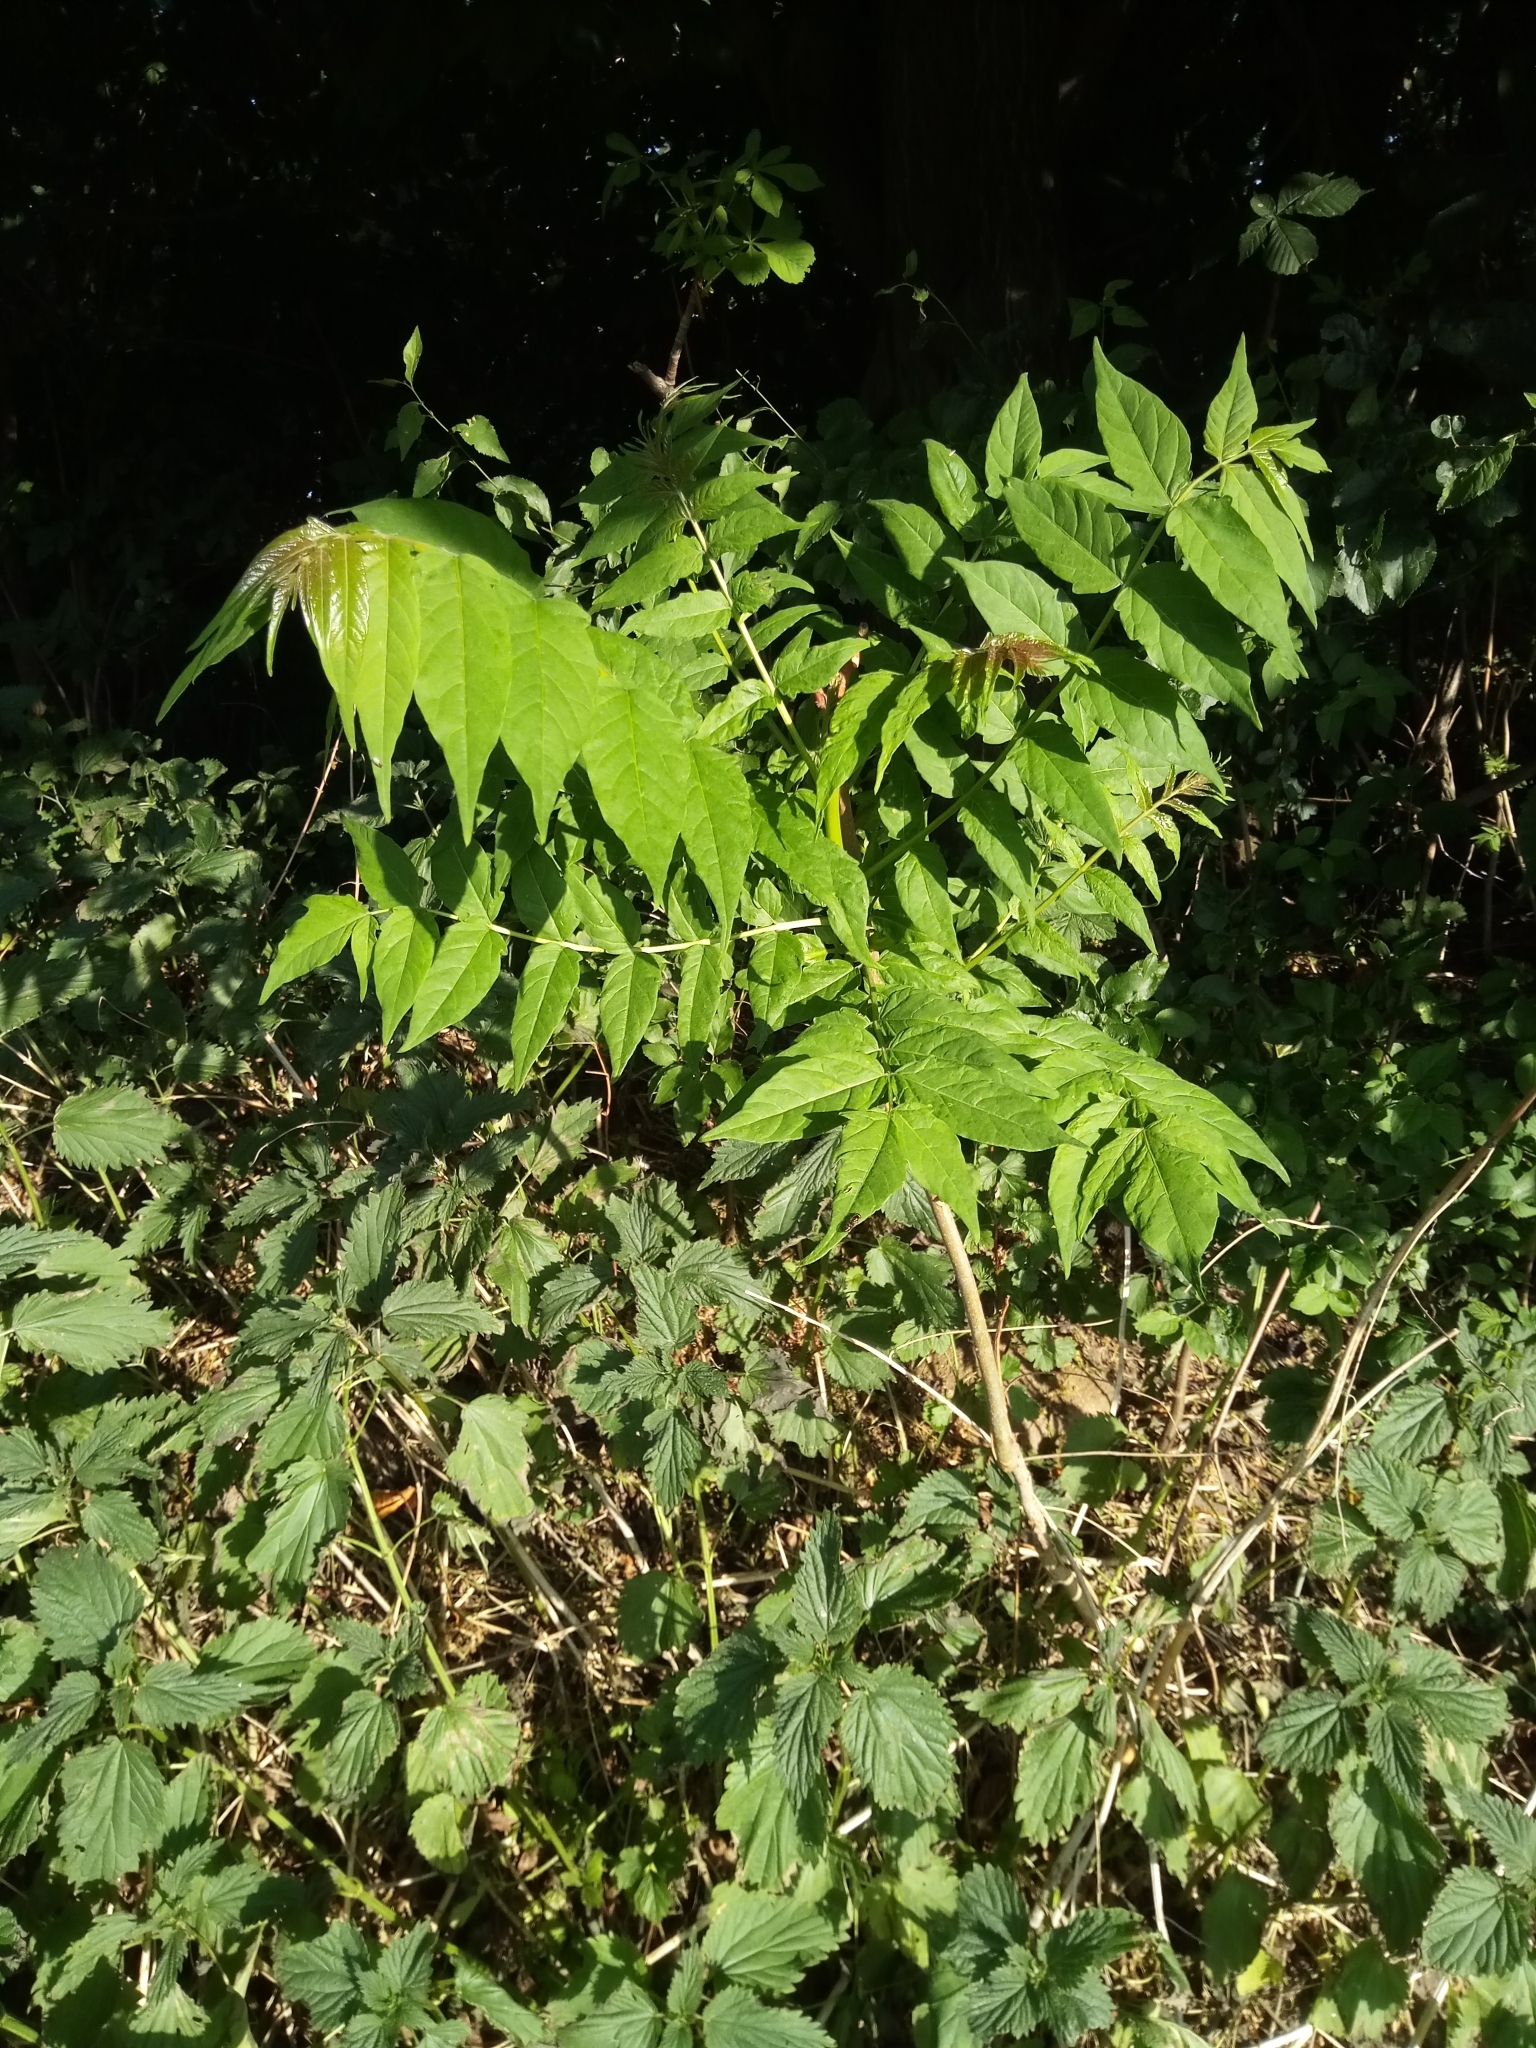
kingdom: Plantae
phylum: Tracheophyta
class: Magnoliopsida
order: Sapindales
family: Simaroubaceae
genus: Ailanthus
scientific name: Ailanthus altissima
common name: Tree-of-heaven
